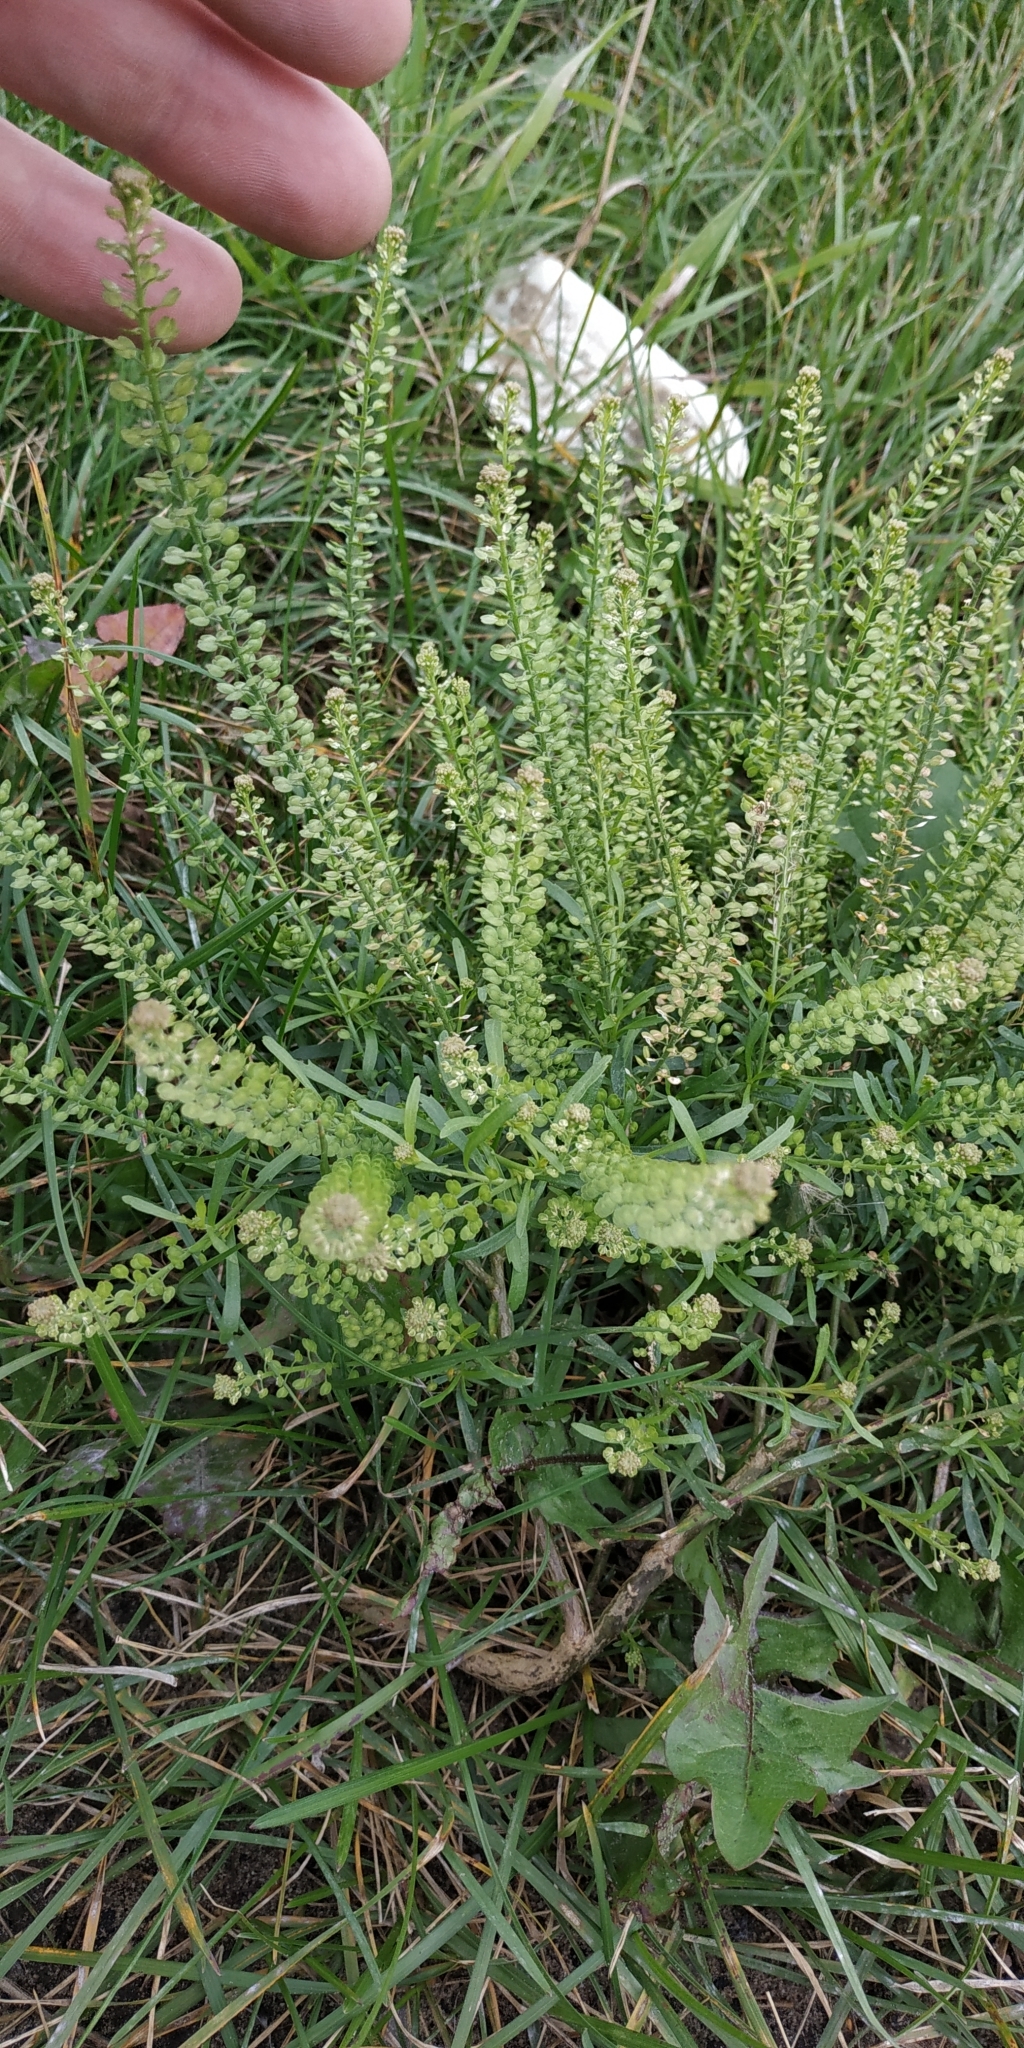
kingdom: Plantae
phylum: Tracheophyta
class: Magnoliopsida
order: Brassicales
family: Brassicaceae
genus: Lepidium
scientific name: Lepidium densiflorum
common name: Miner's pepperwort
